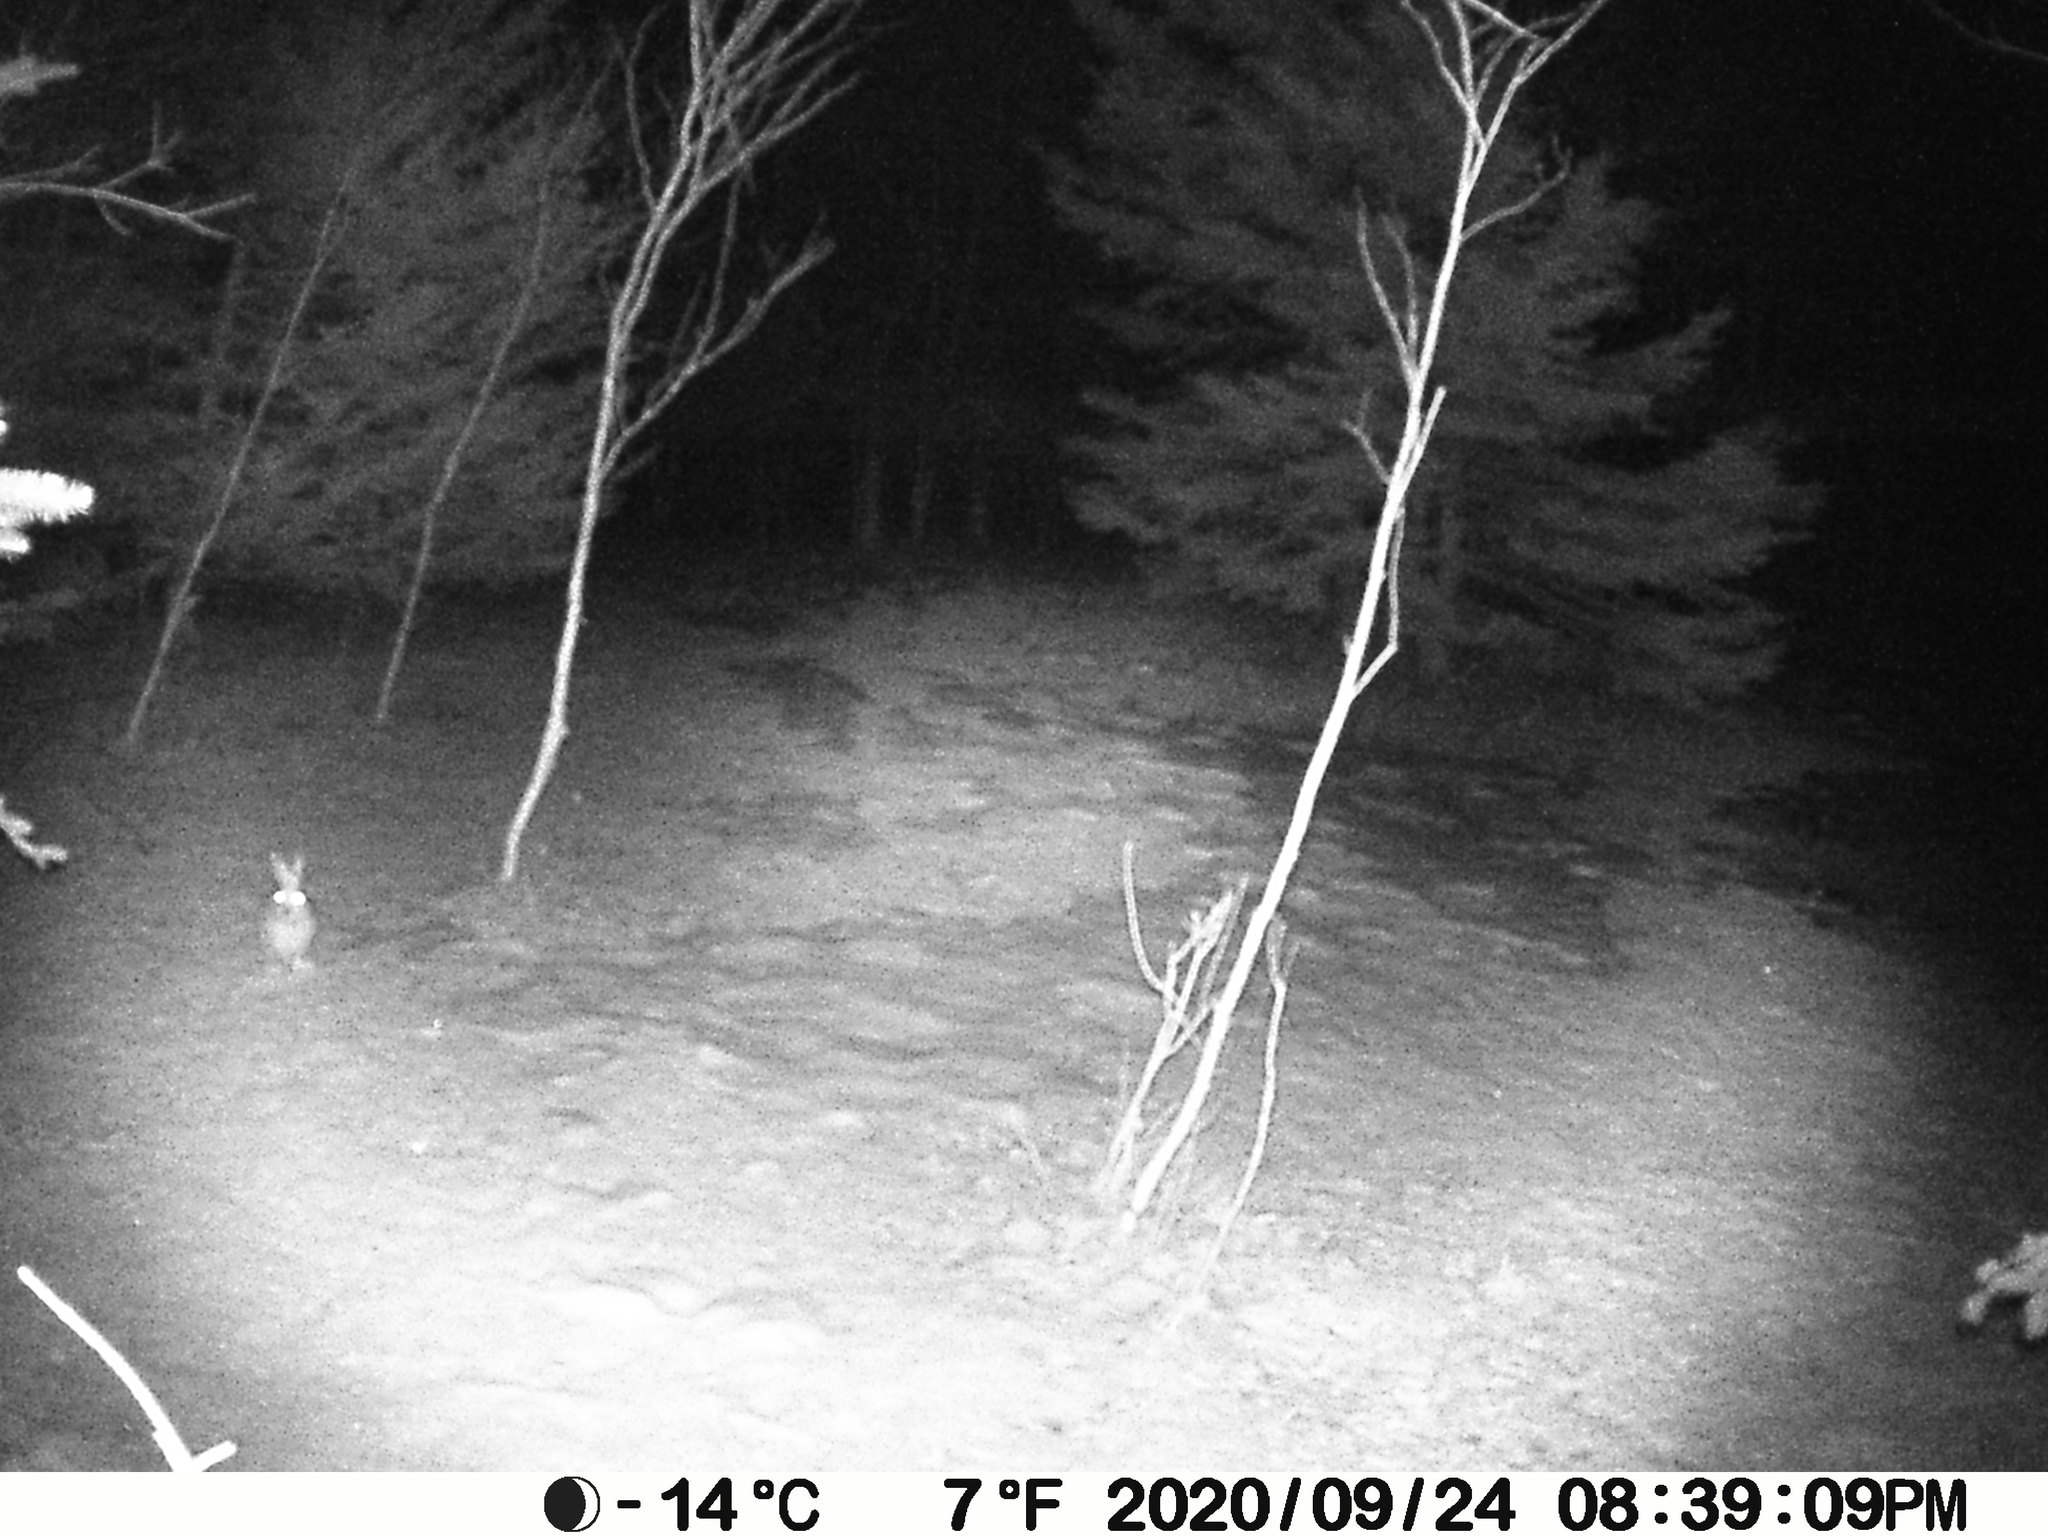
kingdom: Animalia
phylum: Chordata
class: Mammalia
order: Lagomorpha
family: Leporidae
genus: Lepus
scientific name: Lepus americanus
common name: Snowshoe hare
